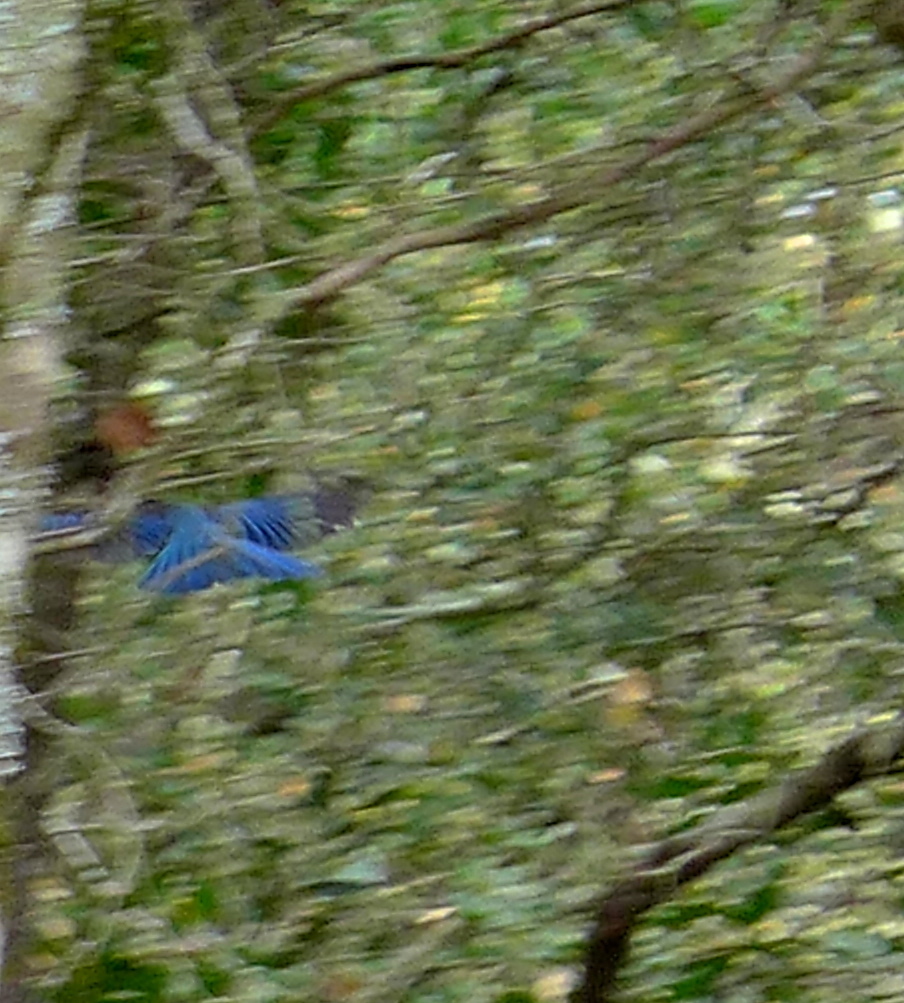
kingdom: Animalia
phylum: Chordata
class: Aves
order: Passeriformes
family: Corvidae
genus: Cyanocitta
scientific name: Cyanocitta stelleri
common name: Steller's jay
